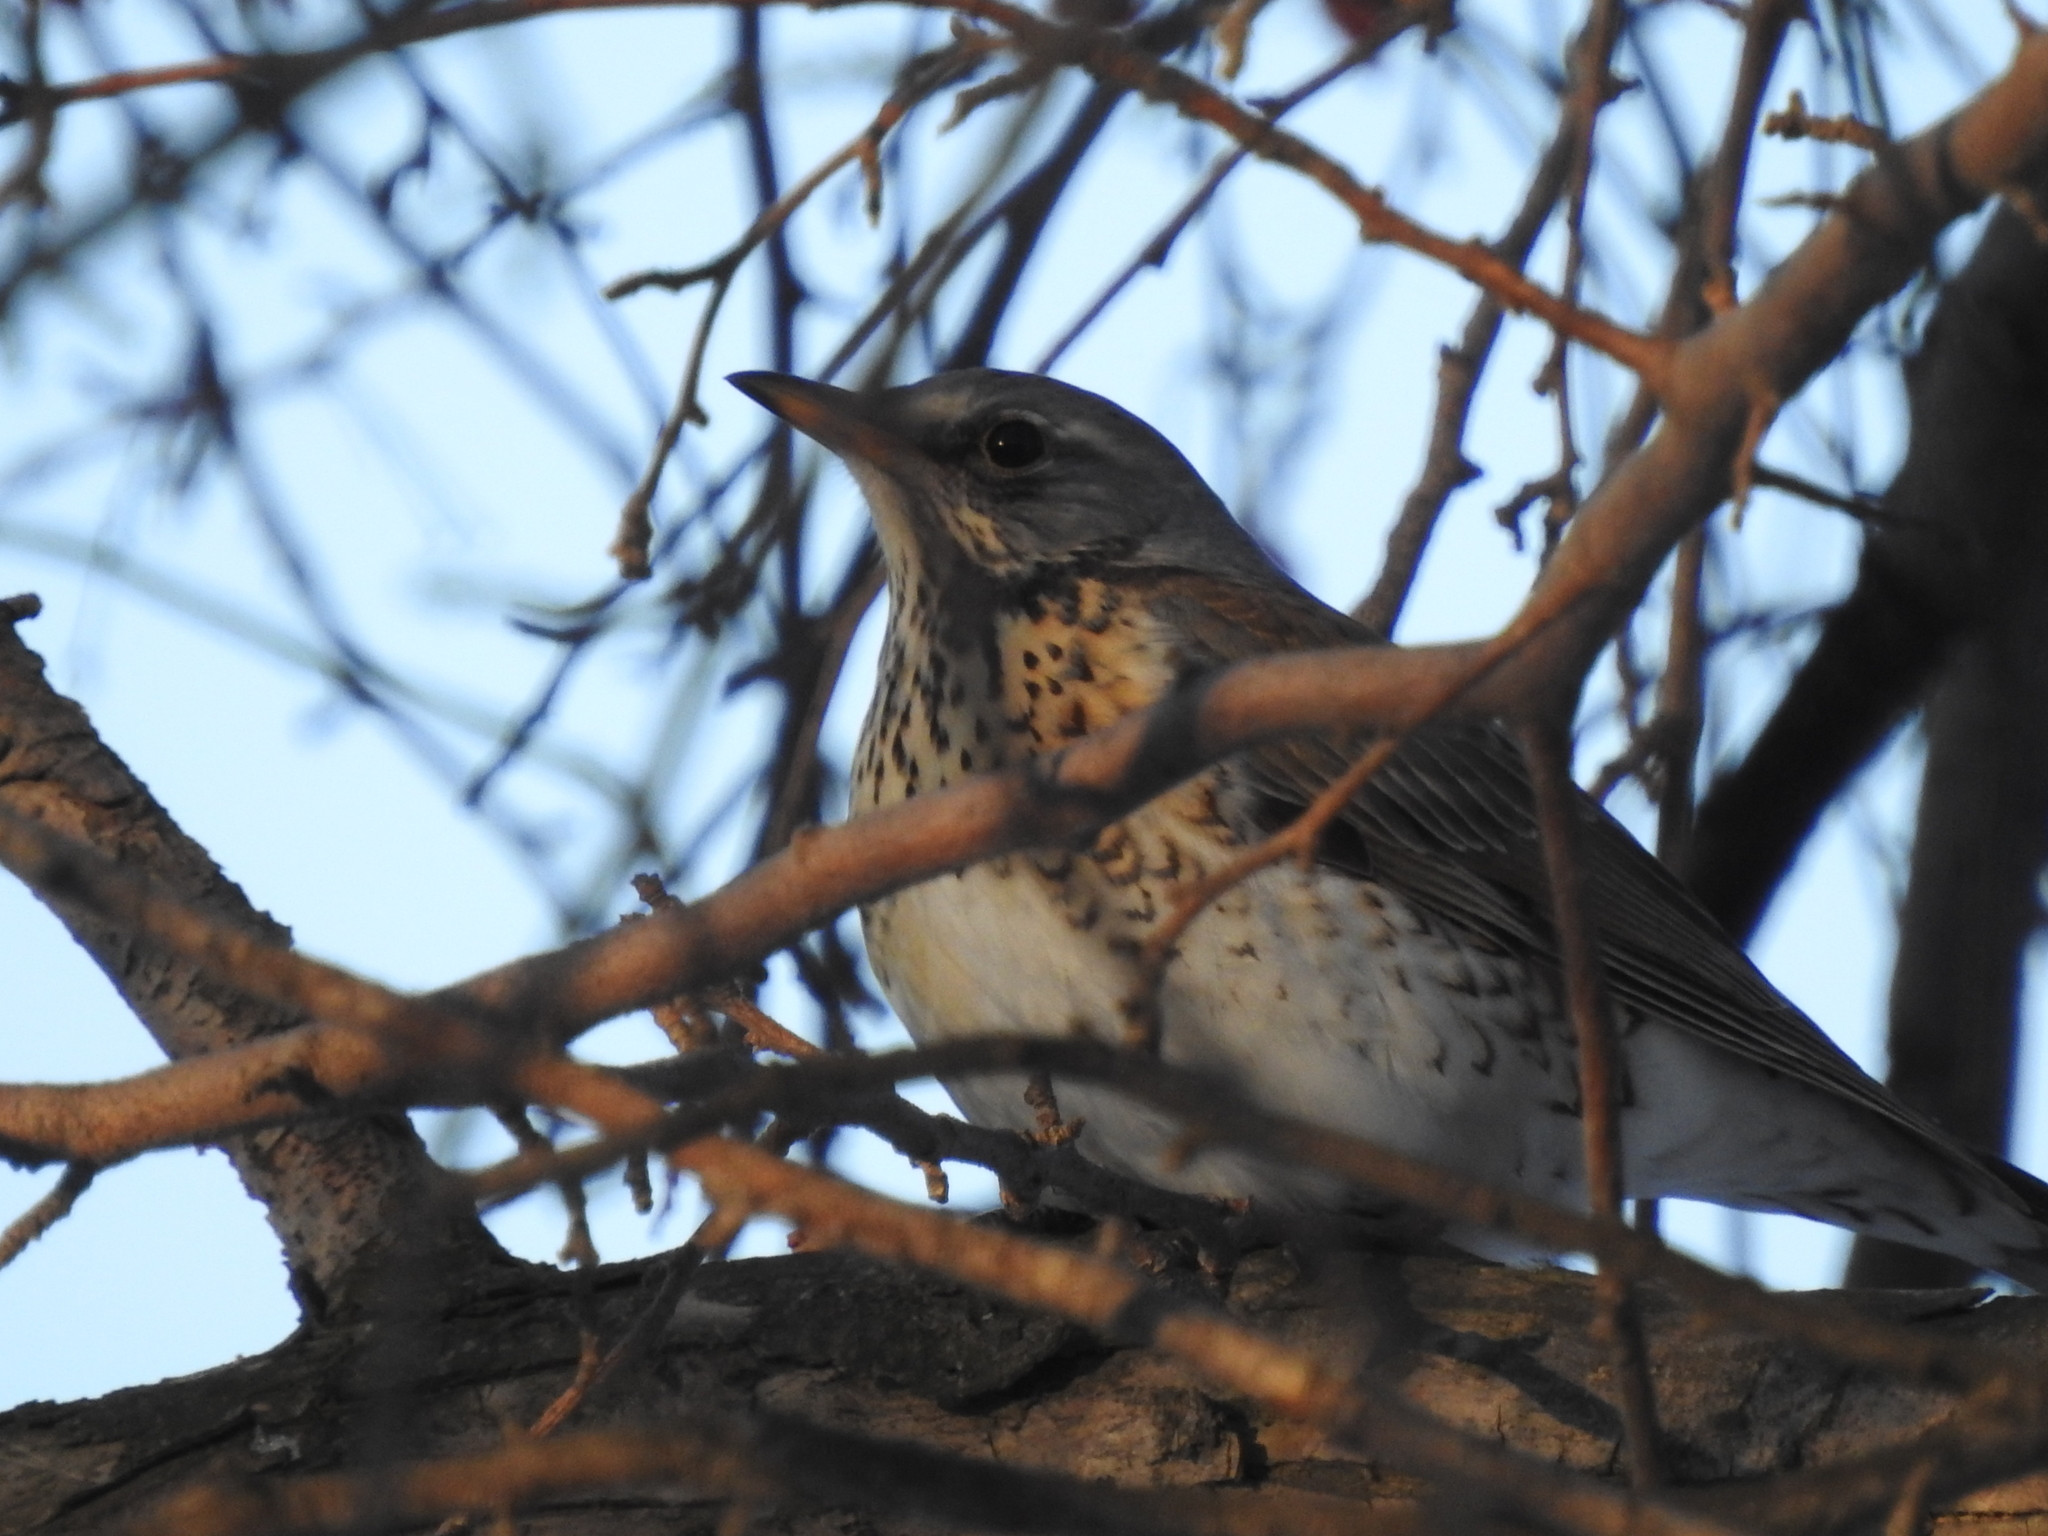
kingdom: Animalia
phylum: Chordata
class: Aves
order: Passeriformes
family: Turdidae
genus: Turdus
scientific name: Turdus pilaris
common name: Fieldfare
